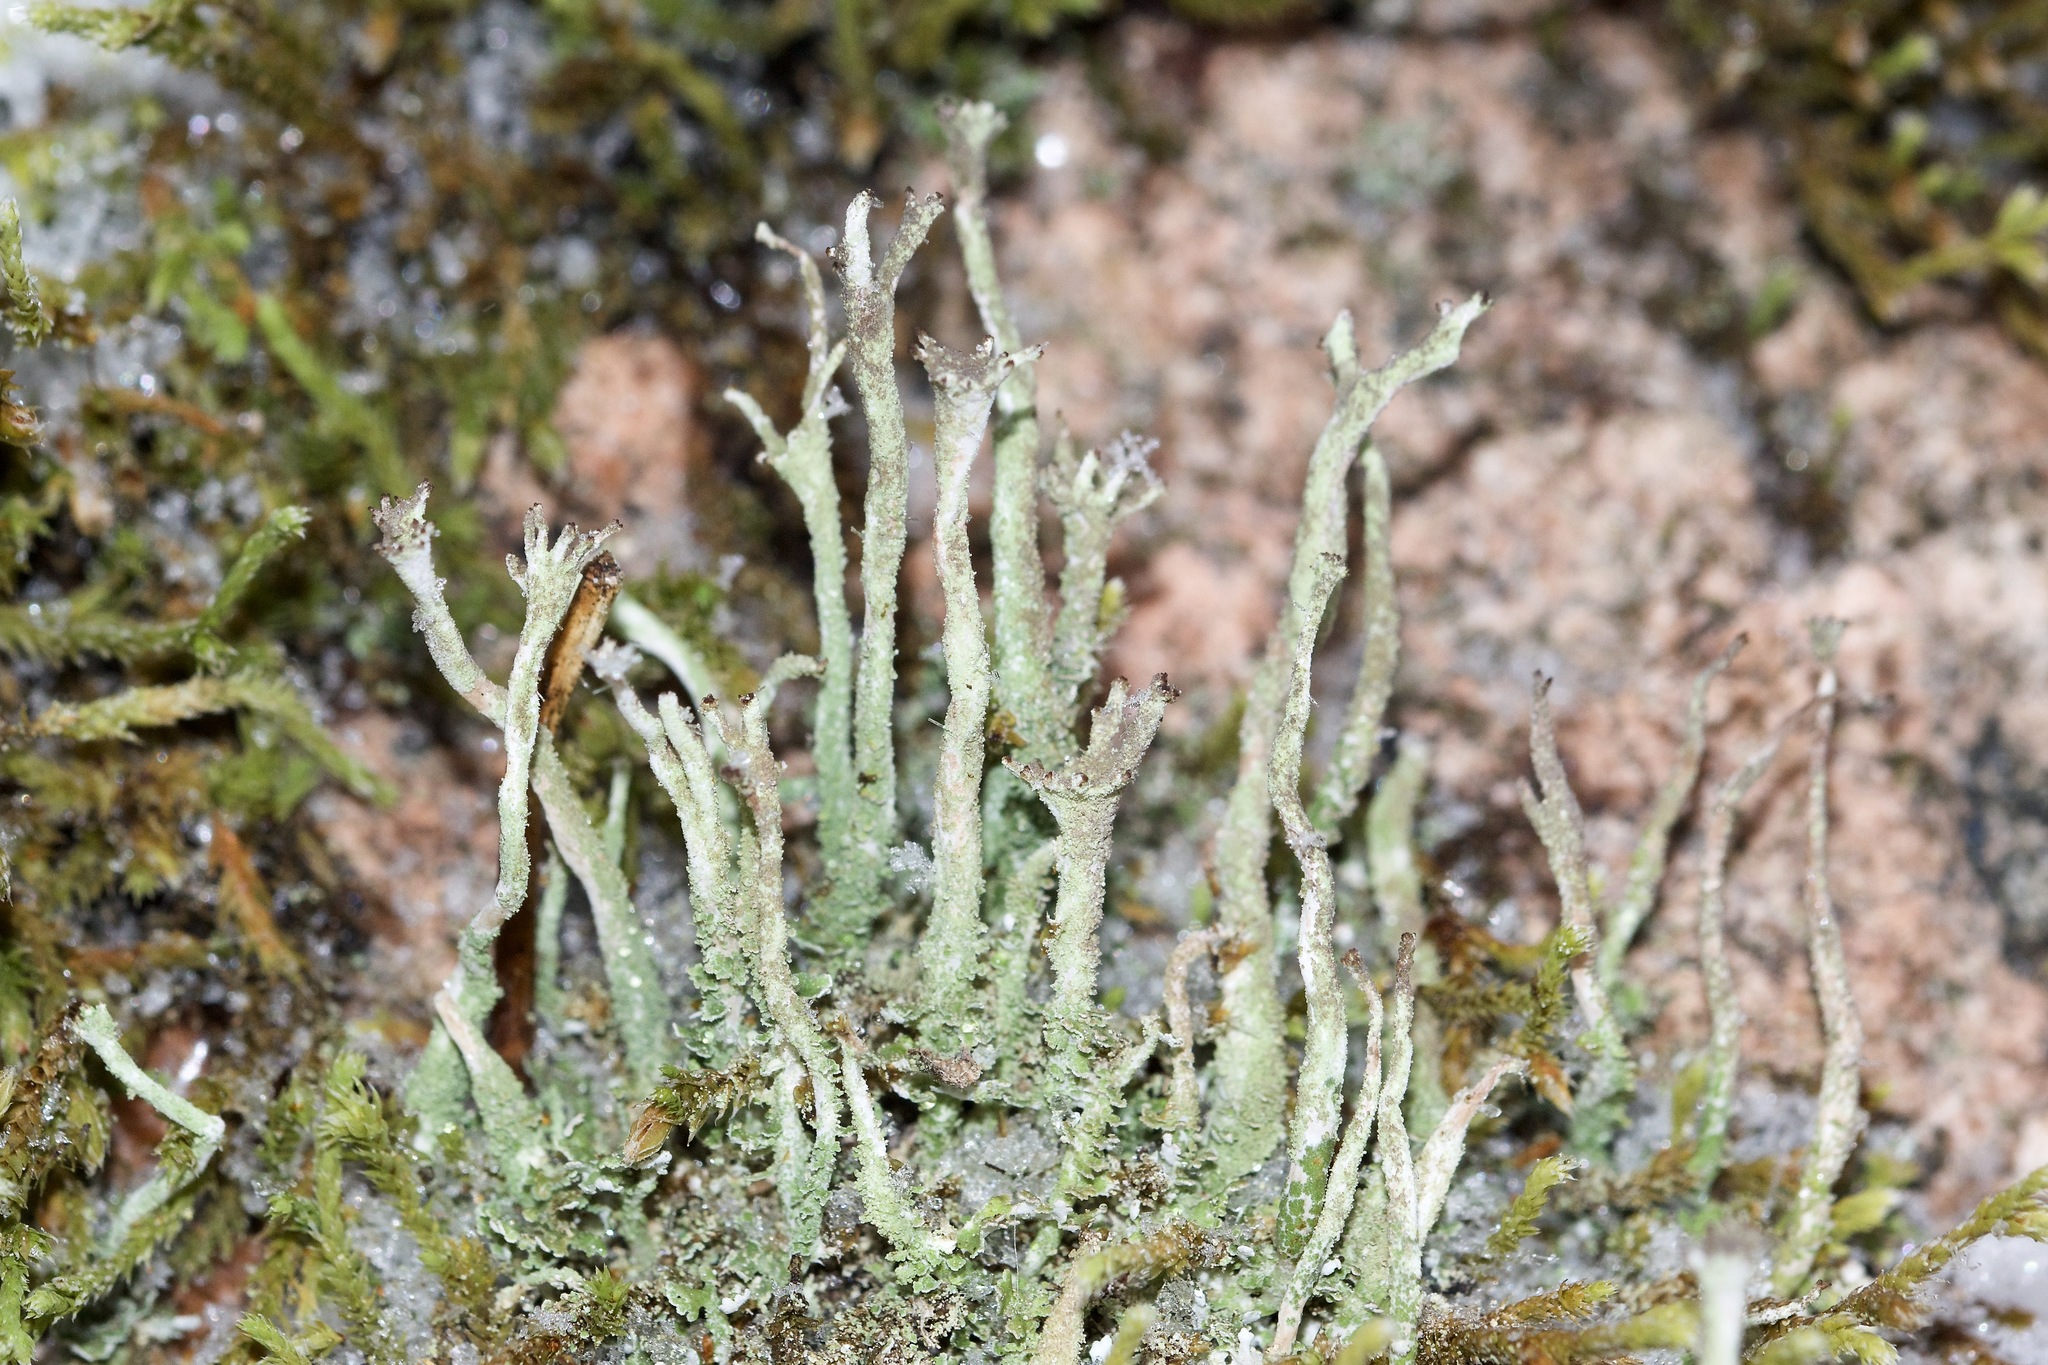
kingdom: Fungi
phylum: Ascomycota
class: Lecanoromycetes
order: Lecanorales
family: Cladoniaceae
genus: Cladonia
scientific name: Cladonia rei
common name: Wand lichen
